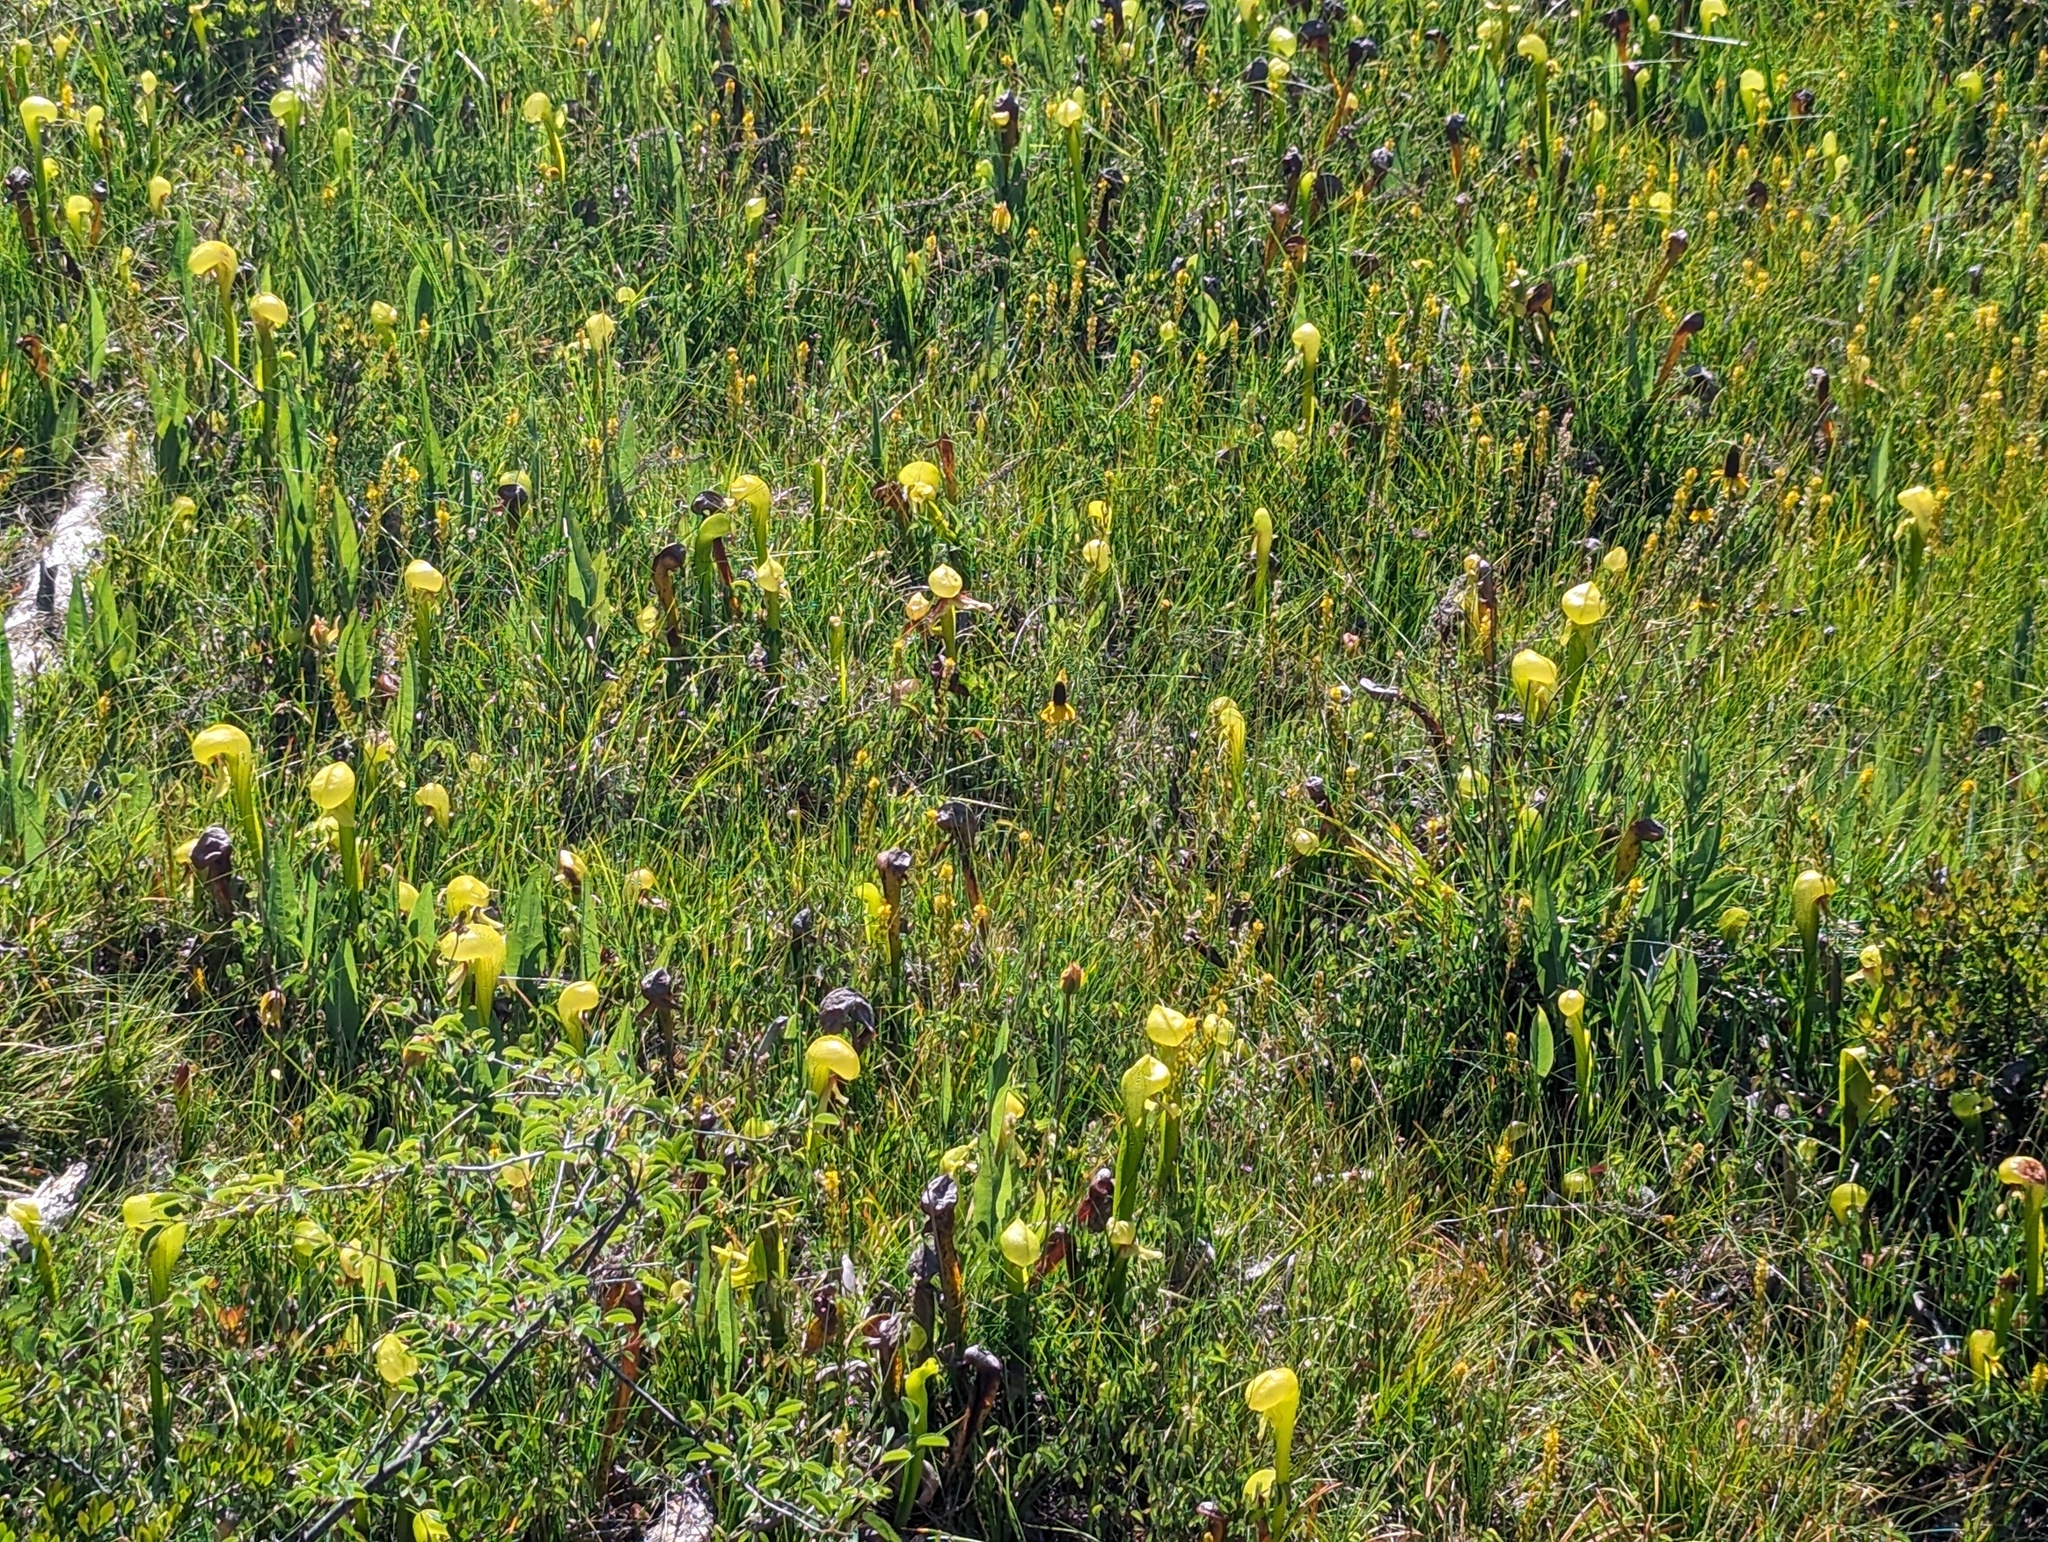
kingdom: Plantae
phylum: Tracheophyta
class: Magnoliopsida
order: Ericales
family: Sarraceniaceae
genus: Darlingtonia
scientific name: Darlingtonia californica
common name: California pitcher plant
